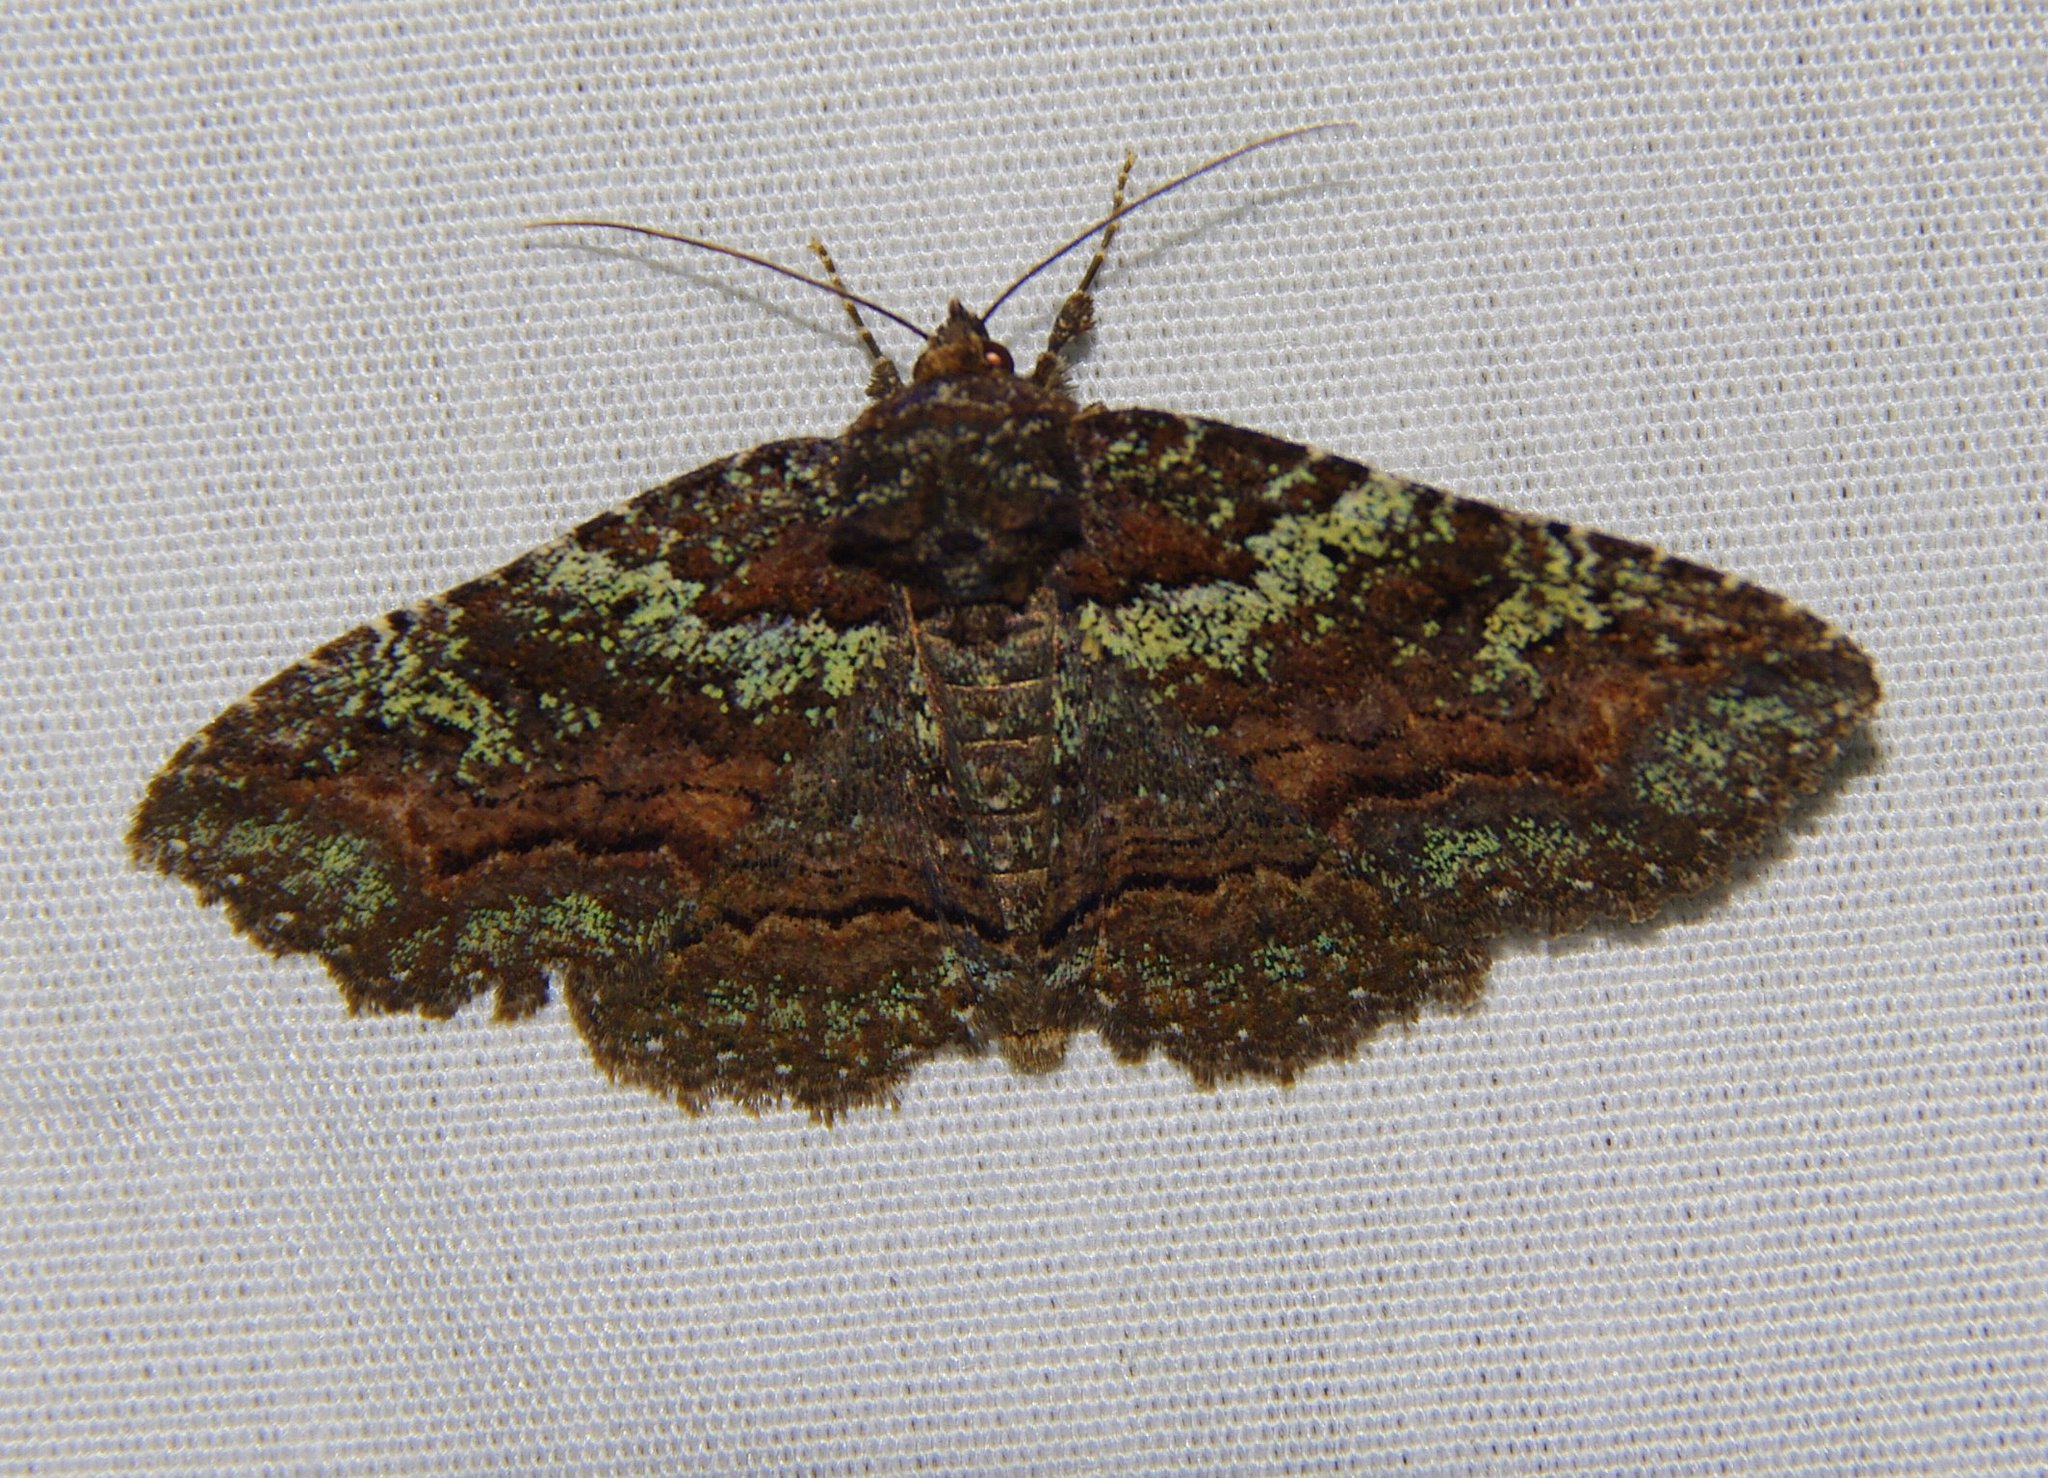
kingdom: Animalia
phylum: Arthropoda
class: Insecta
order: Lepidoptera
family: Erebidae
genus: Zale
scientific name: Zale aeruginosa
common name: Green-dusted zale moth
